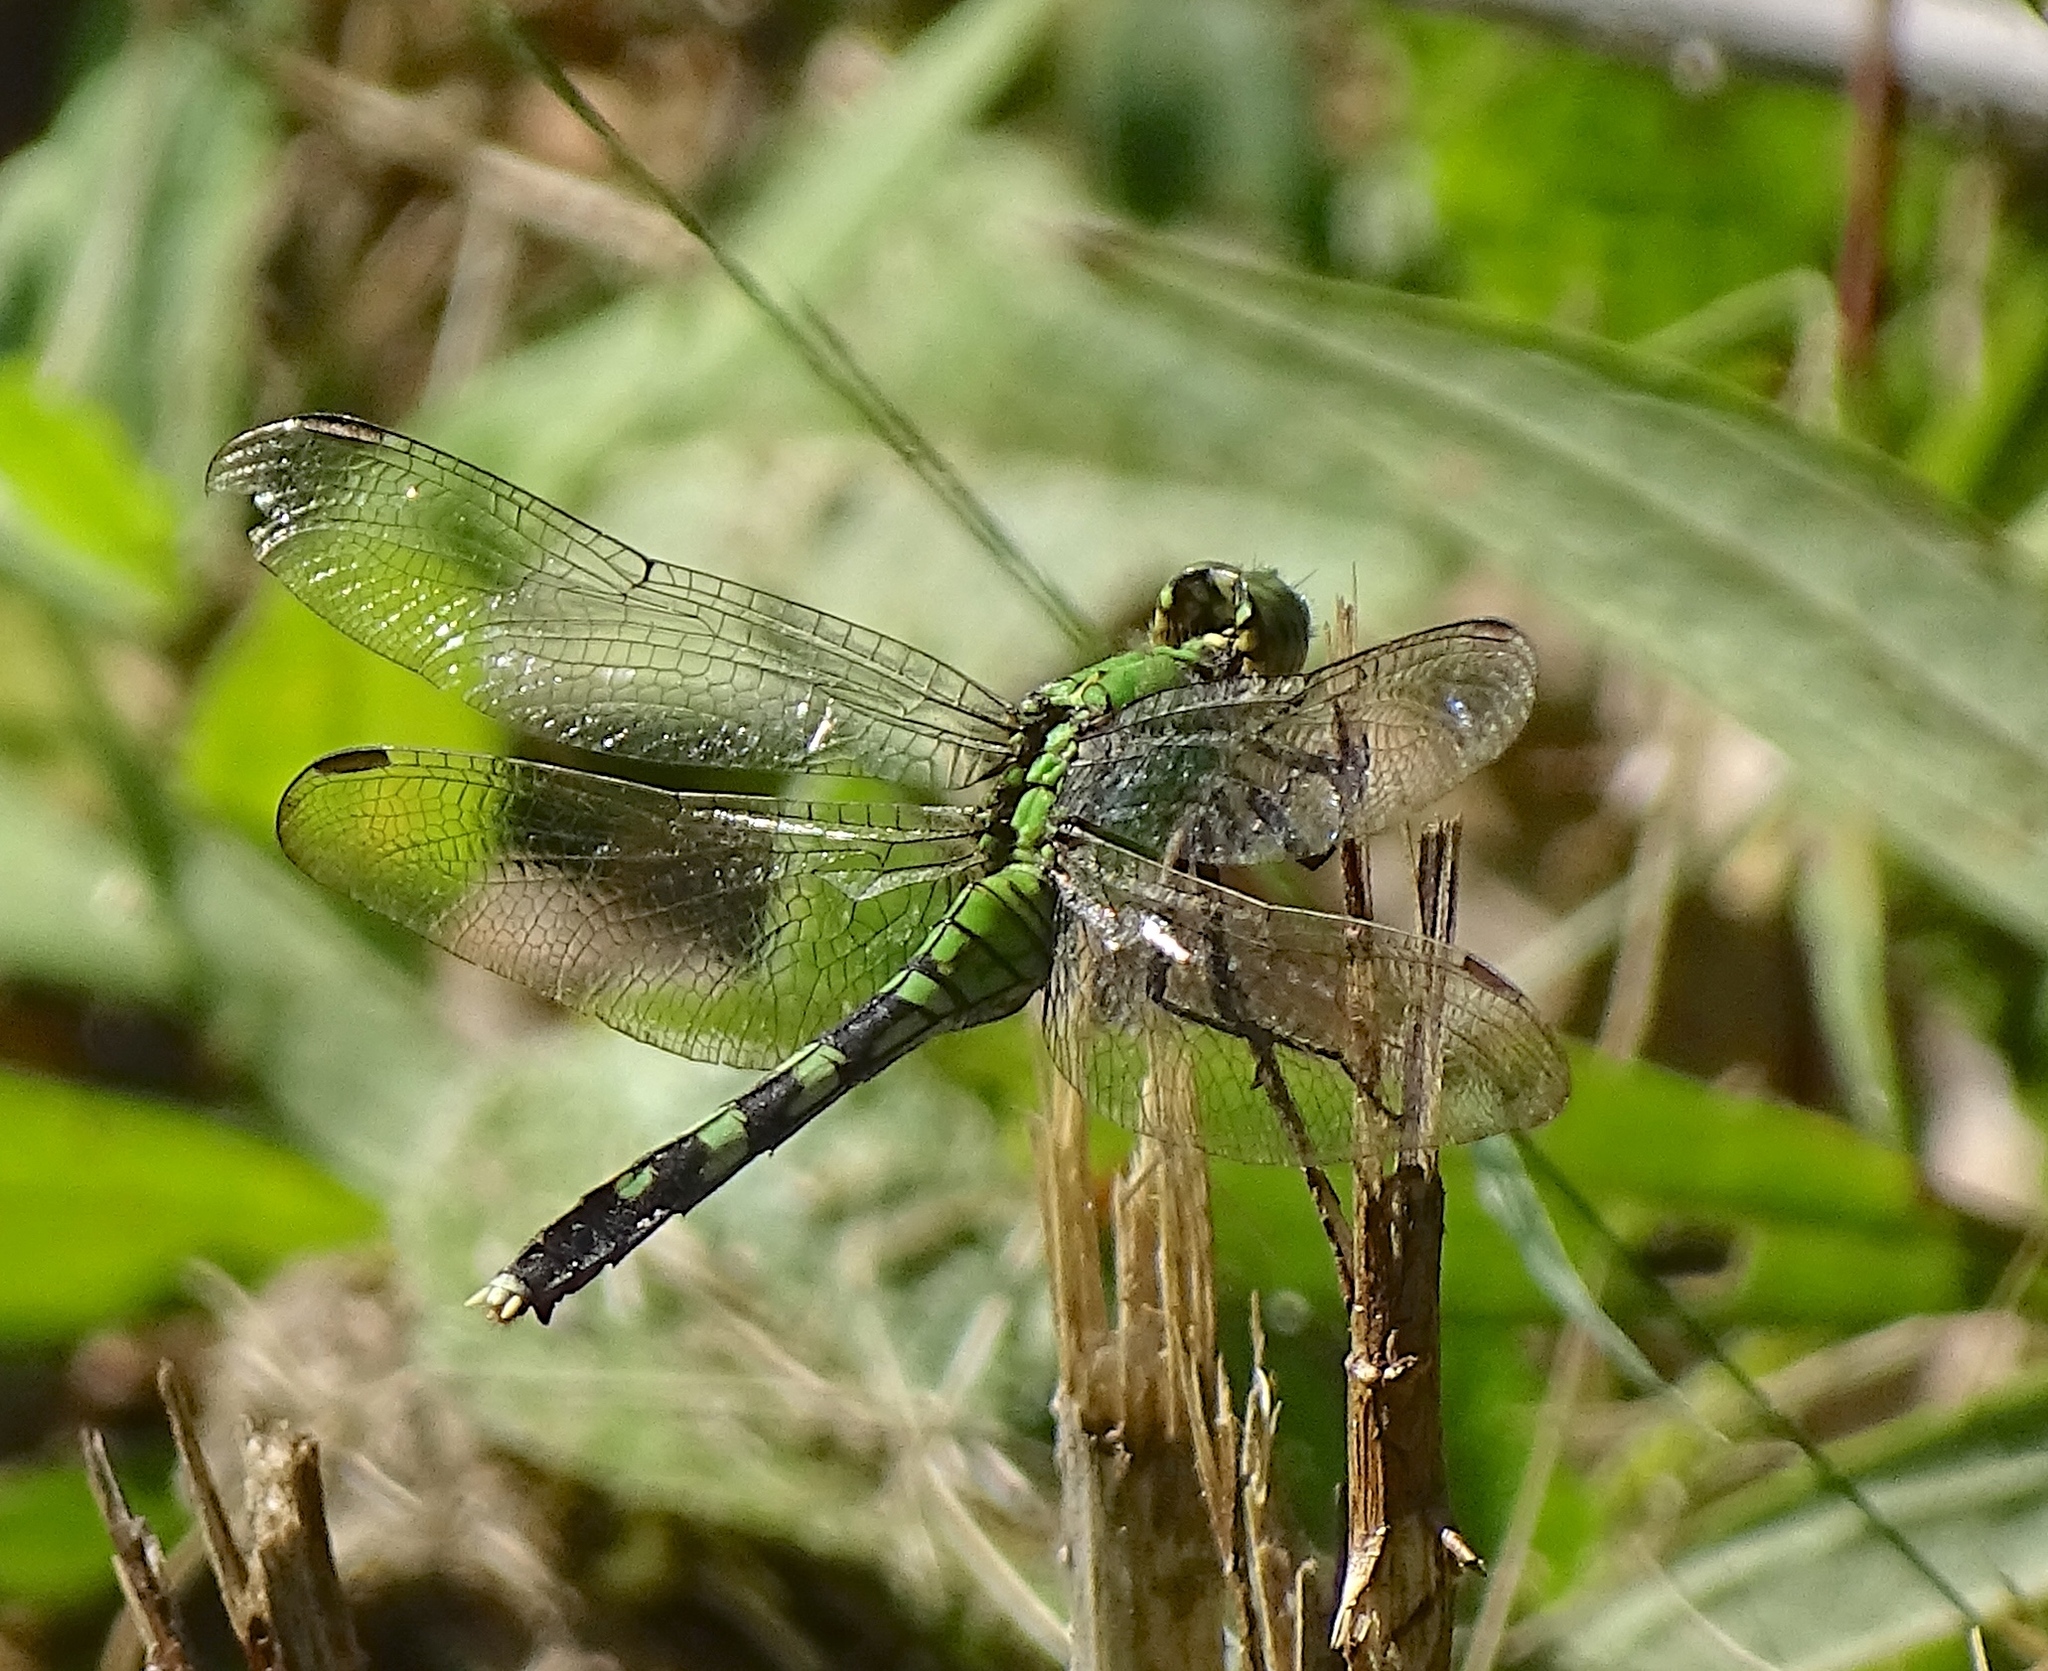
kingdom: Animalia
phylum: Arthropoda
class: Insecta
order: Odonata
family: Libellulidae
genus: Erythemis
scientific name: Erythemis simplicicollis
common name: Eastern pondhawk
